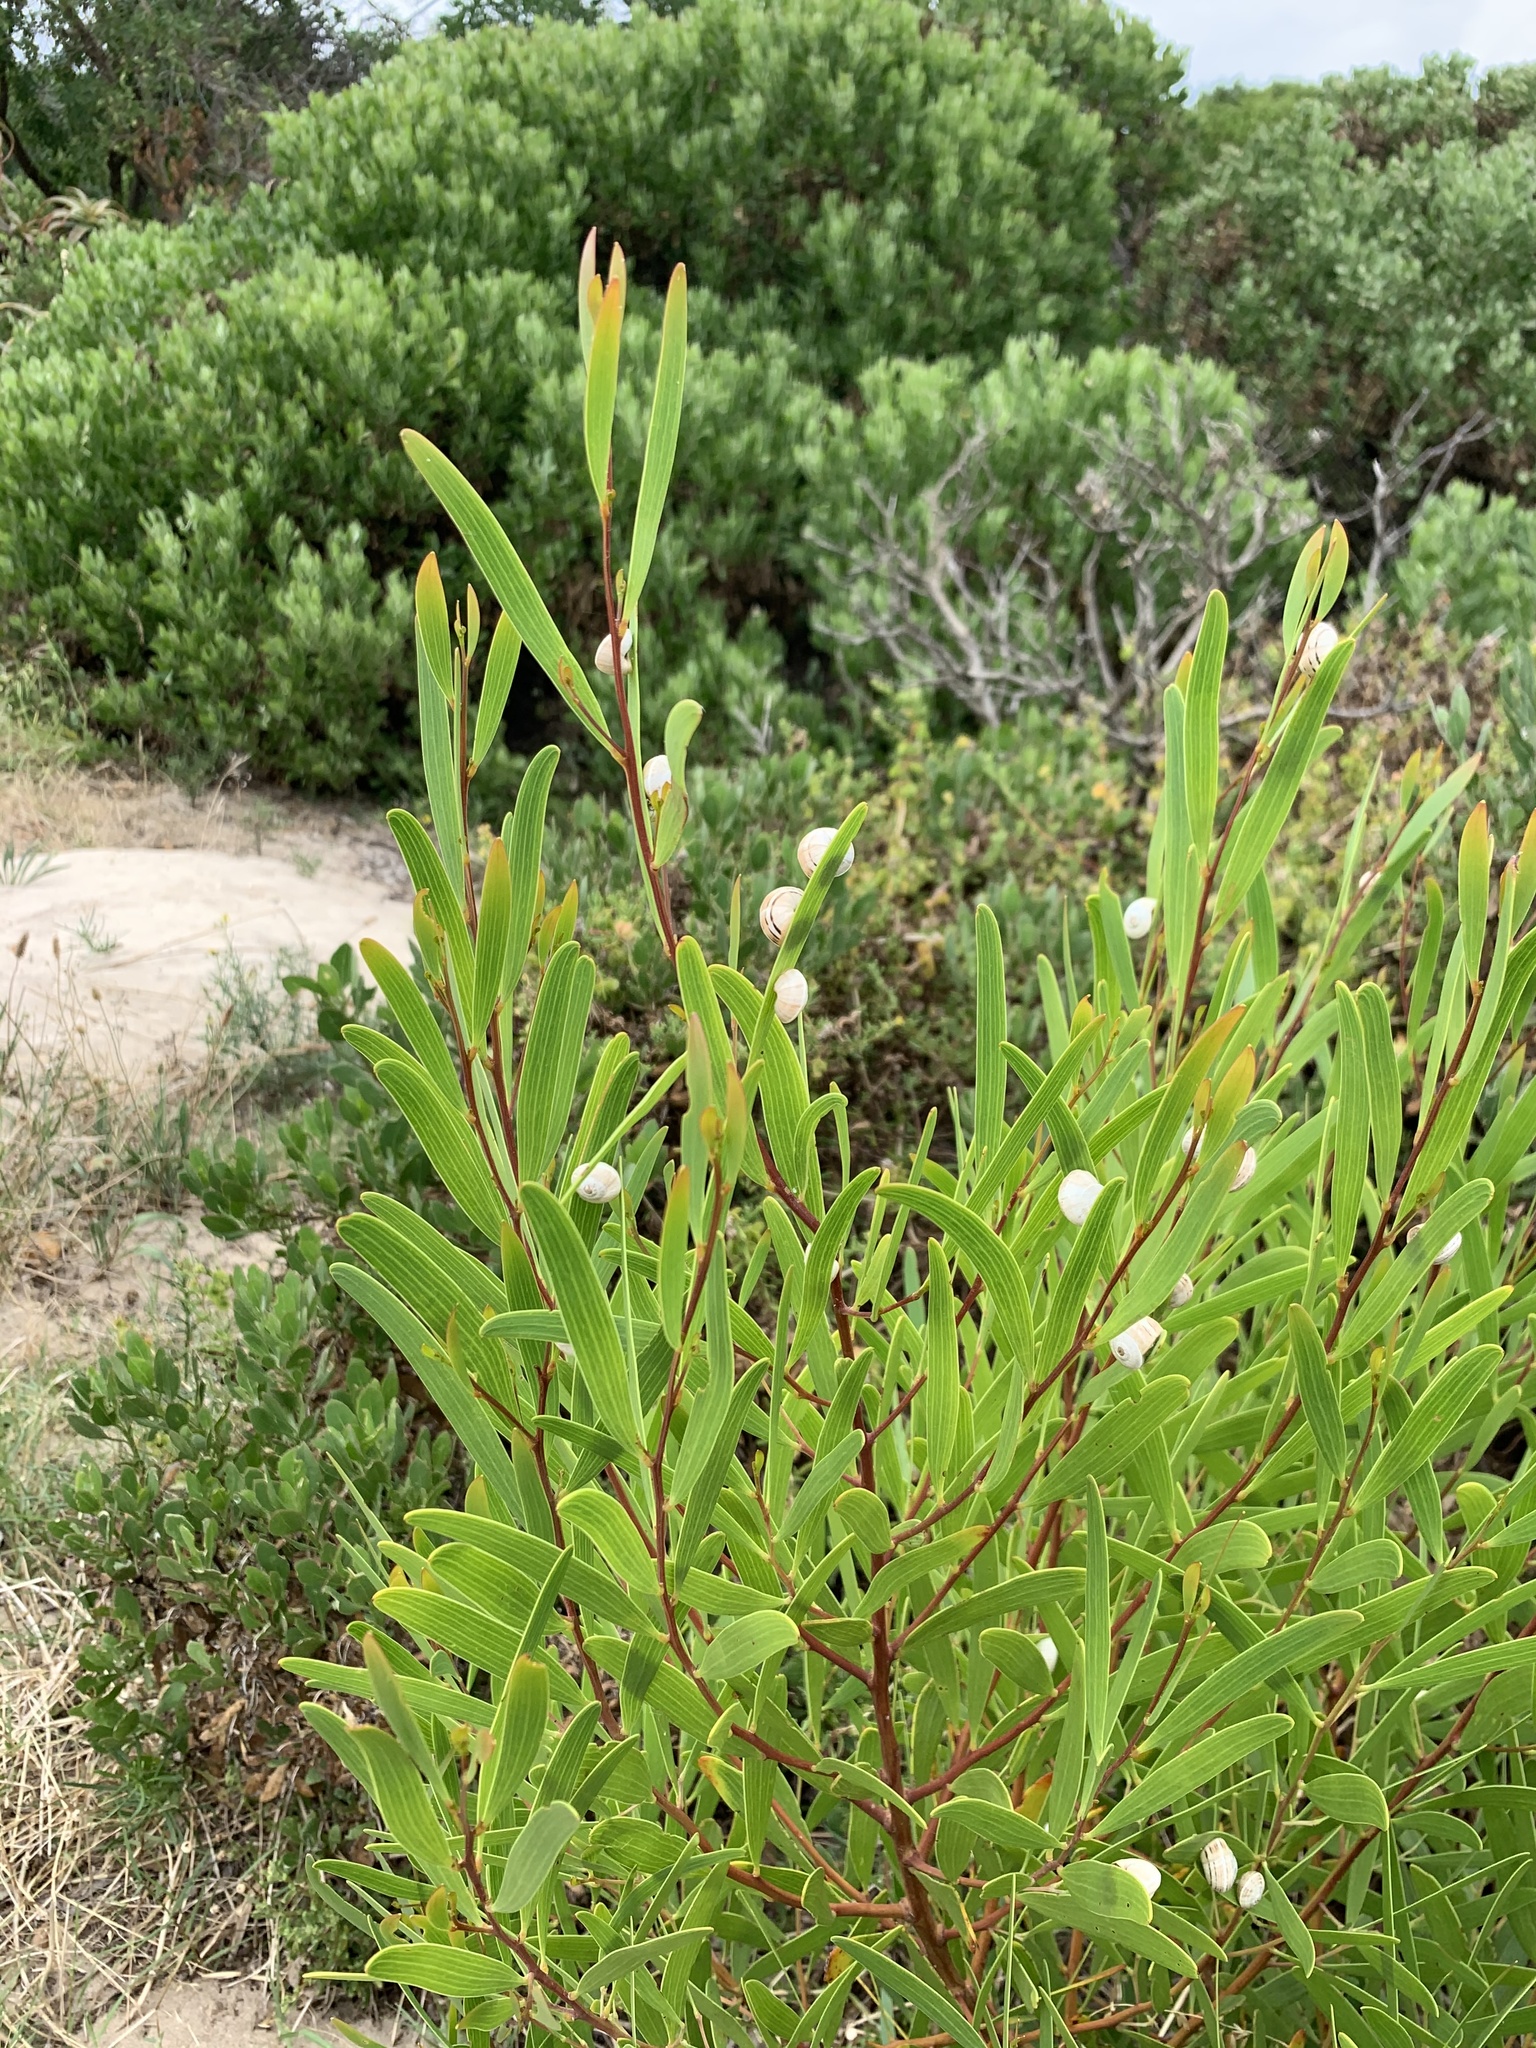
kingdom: Animalia
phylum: Mollusca
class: Gastropoda
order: Stylommatophora
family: Helicidae
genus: Theba
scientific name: Theba pisana
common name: White snail
